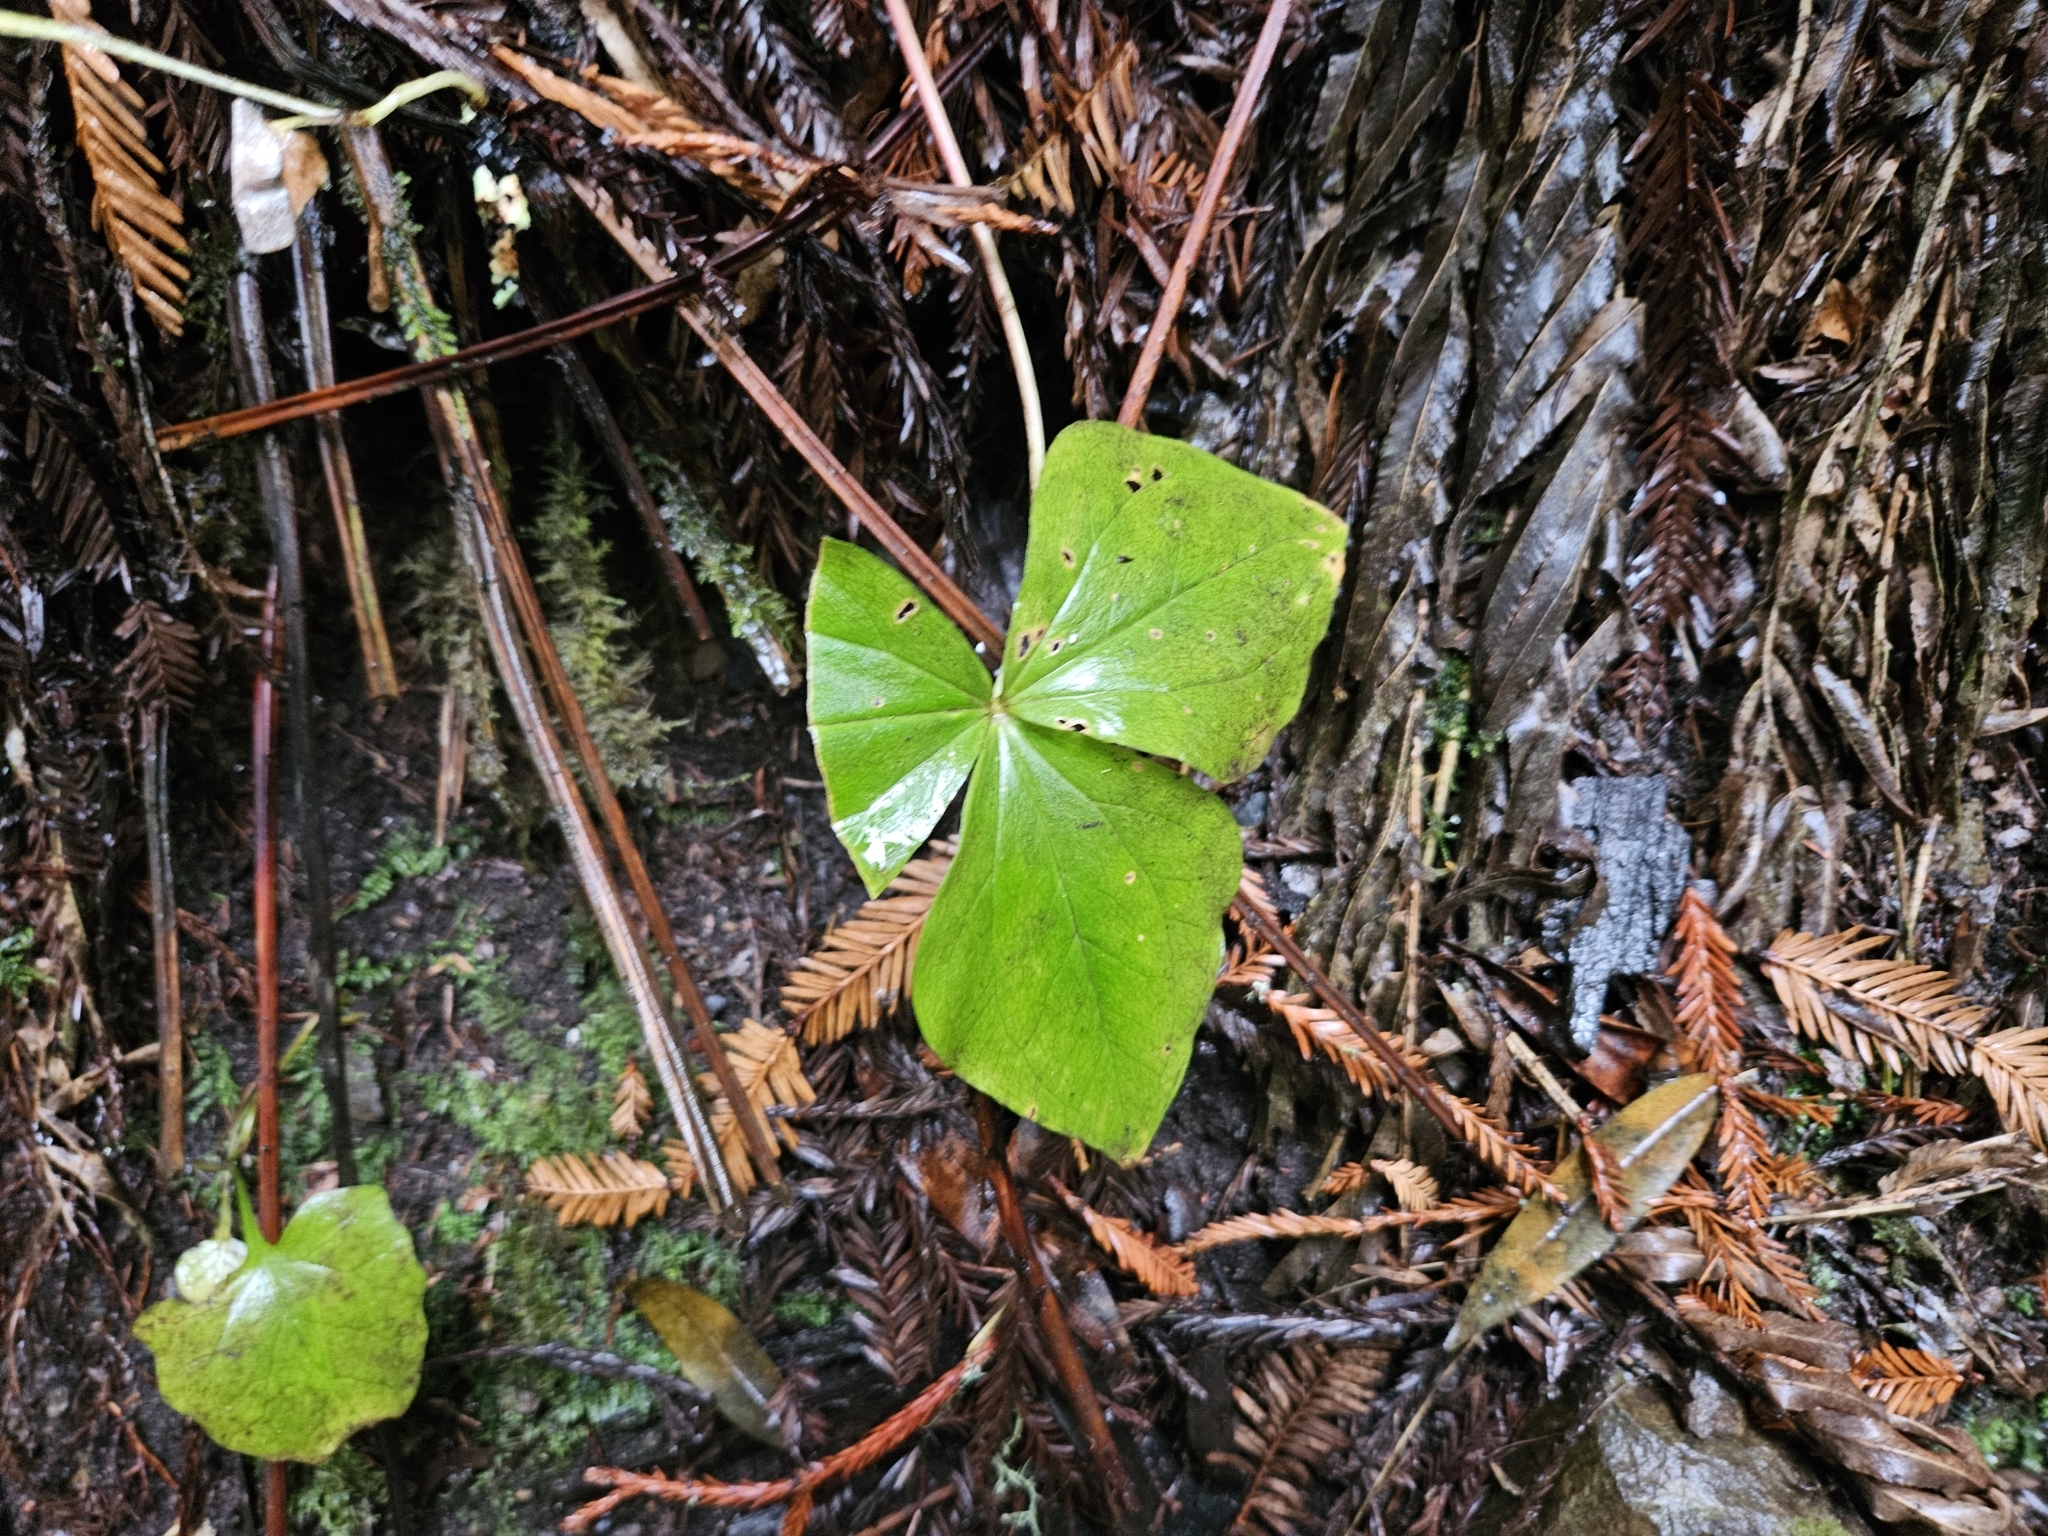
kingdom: Plantae
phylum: Tracheophyta
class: Liliopsida
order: Liliales
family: Melanthiaceae
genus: Trillium
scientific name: Trillium ovatum
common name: Pacific trillium
